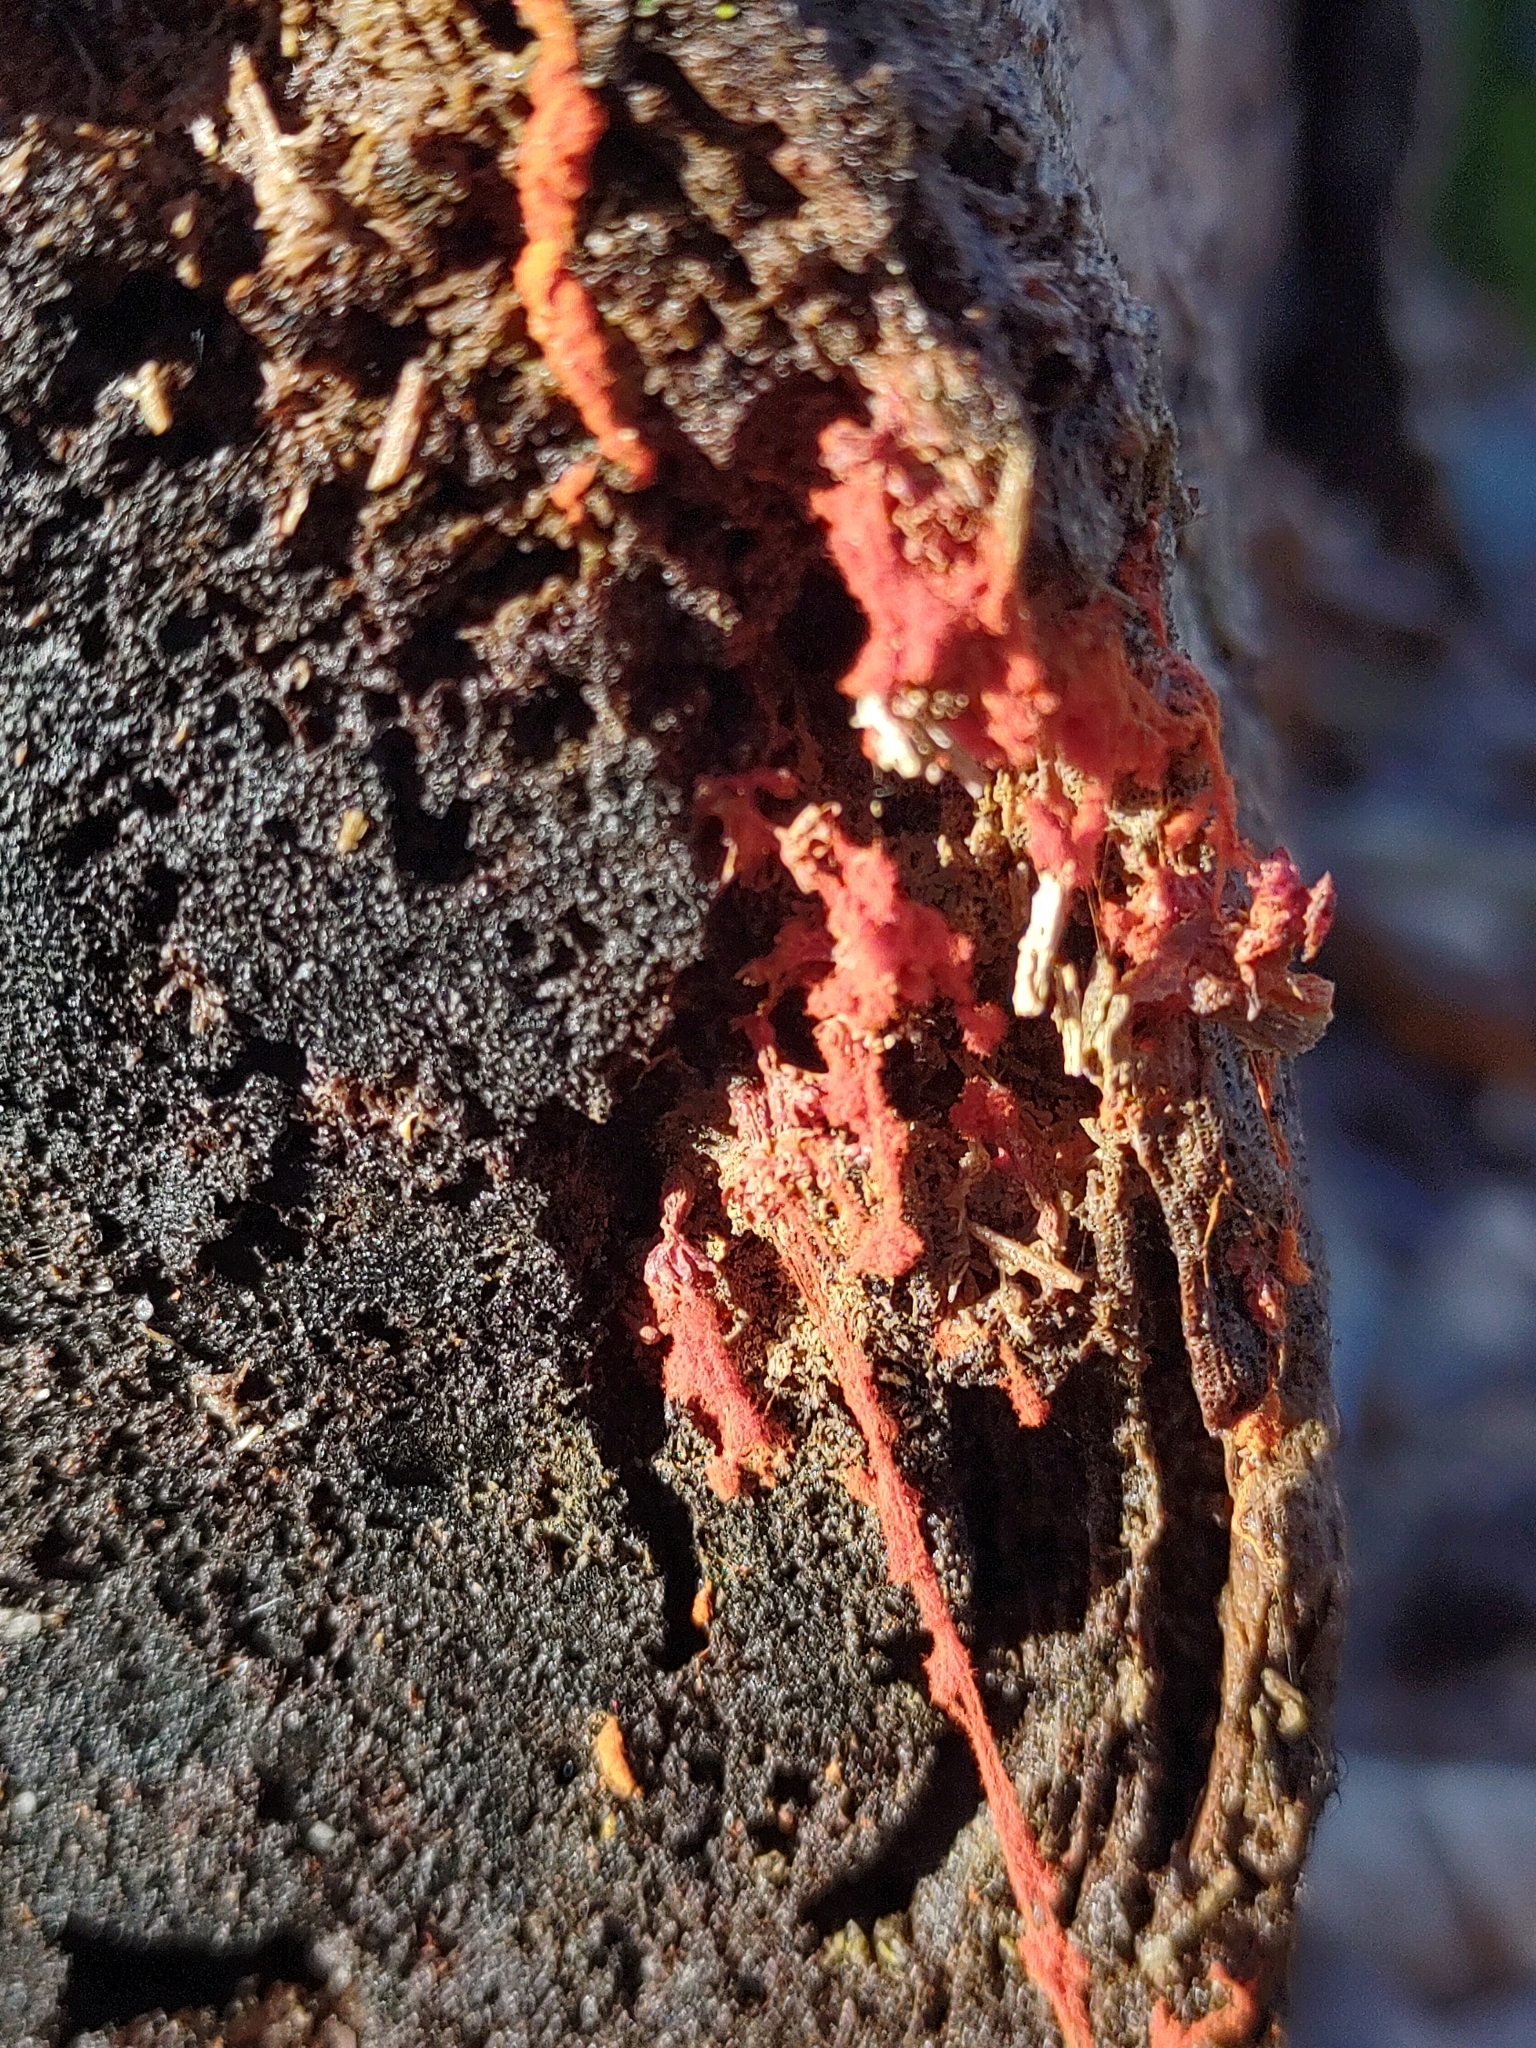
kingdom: Protozoa
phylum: Mycetozoa
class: Myxomycetes
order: Trichiales
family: Trichiaceae
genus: Metatrichia
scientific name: Metatrichia vesparia
